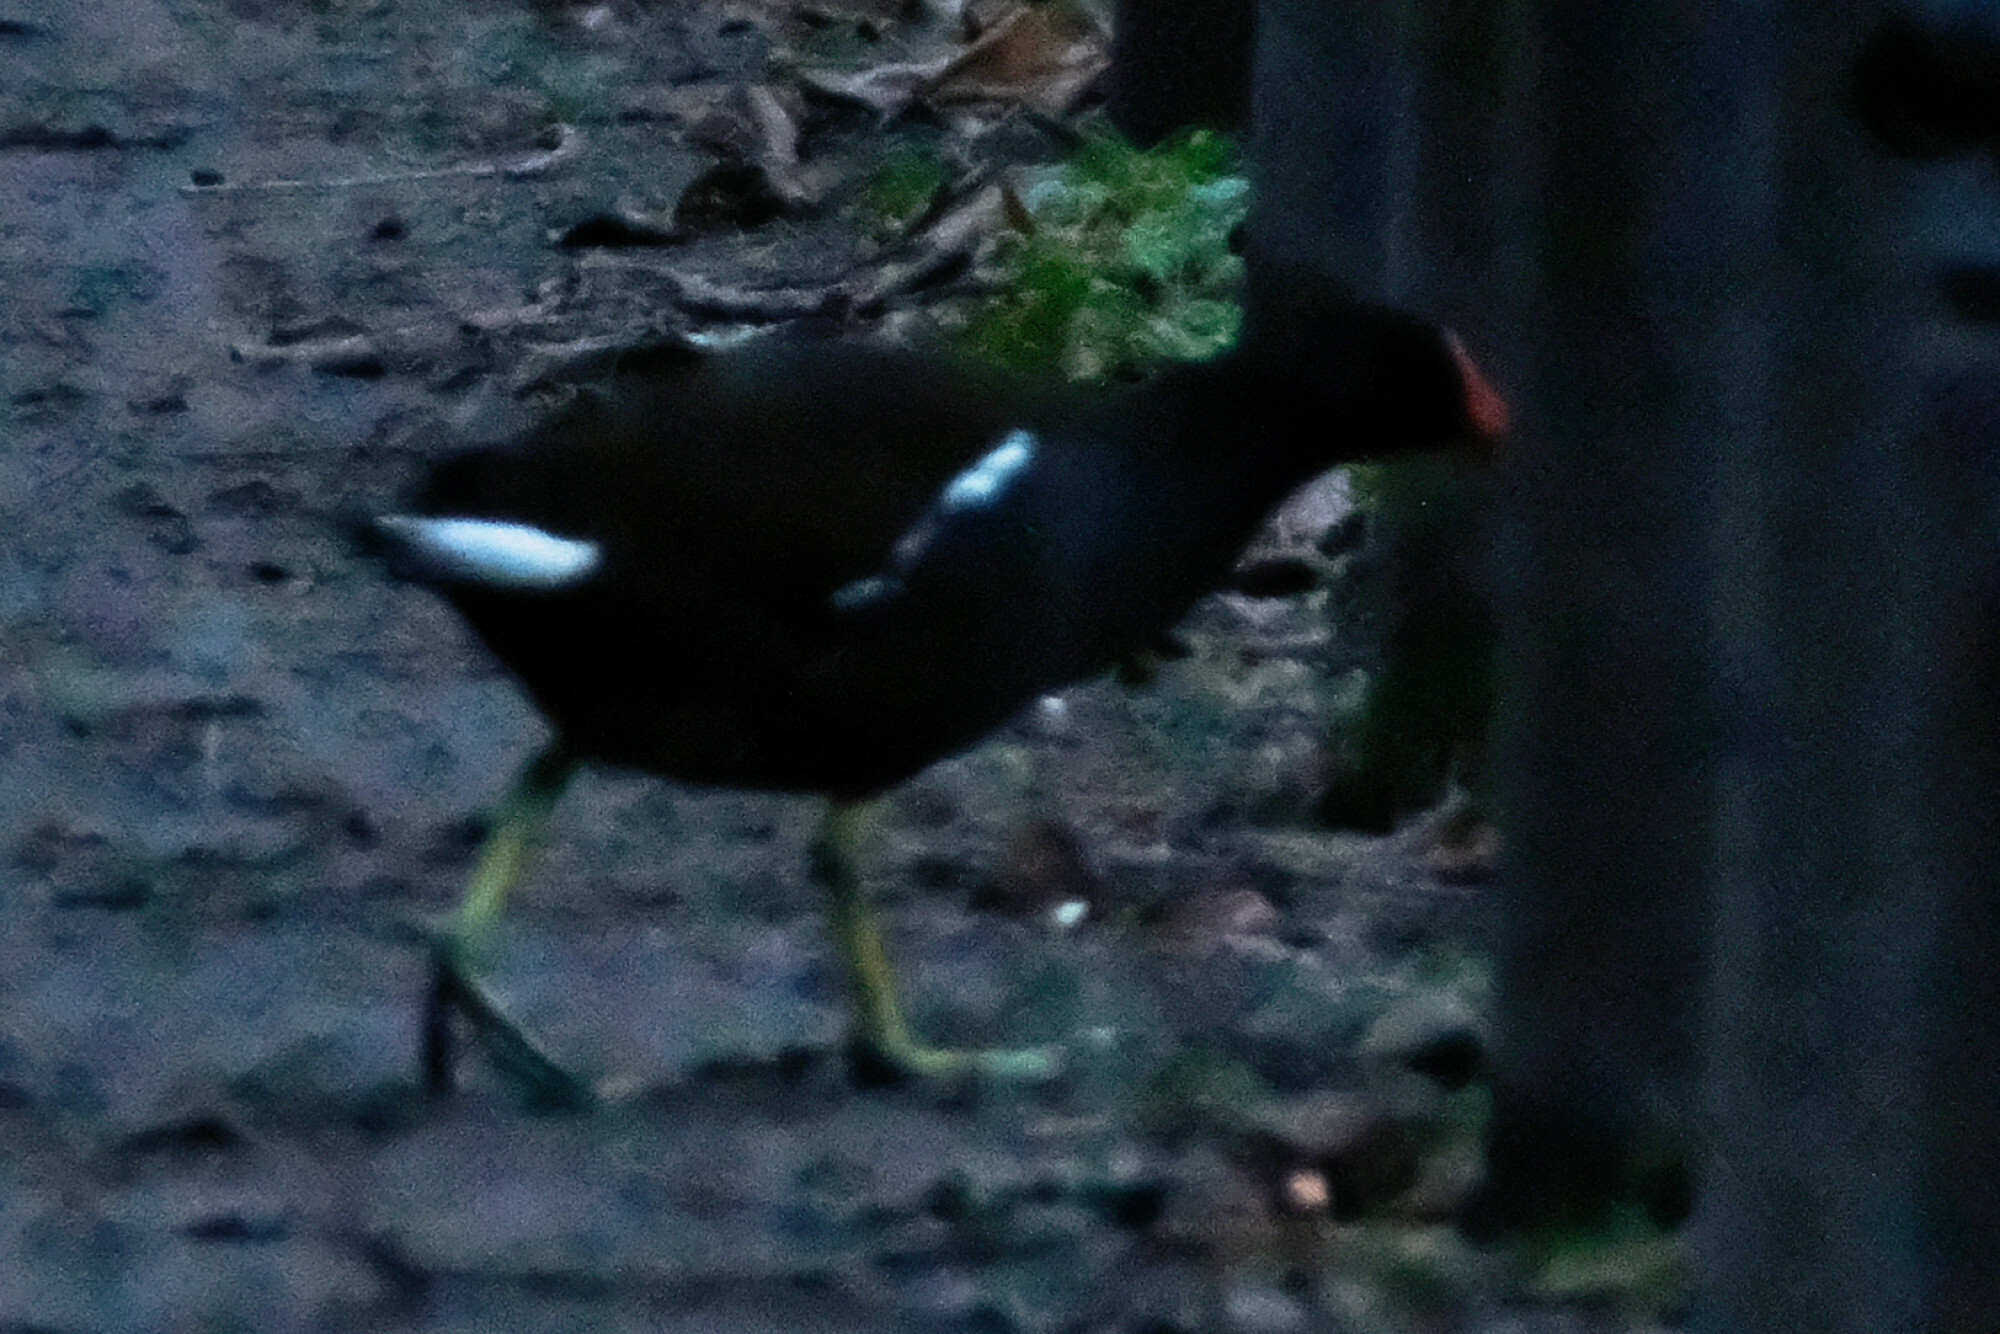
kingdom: Animalia
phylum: Chordata
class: Aves
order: Gruiformes
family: Rallidae
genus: Gallinula
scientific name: Gallinula chloropus
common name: Common moorhen
